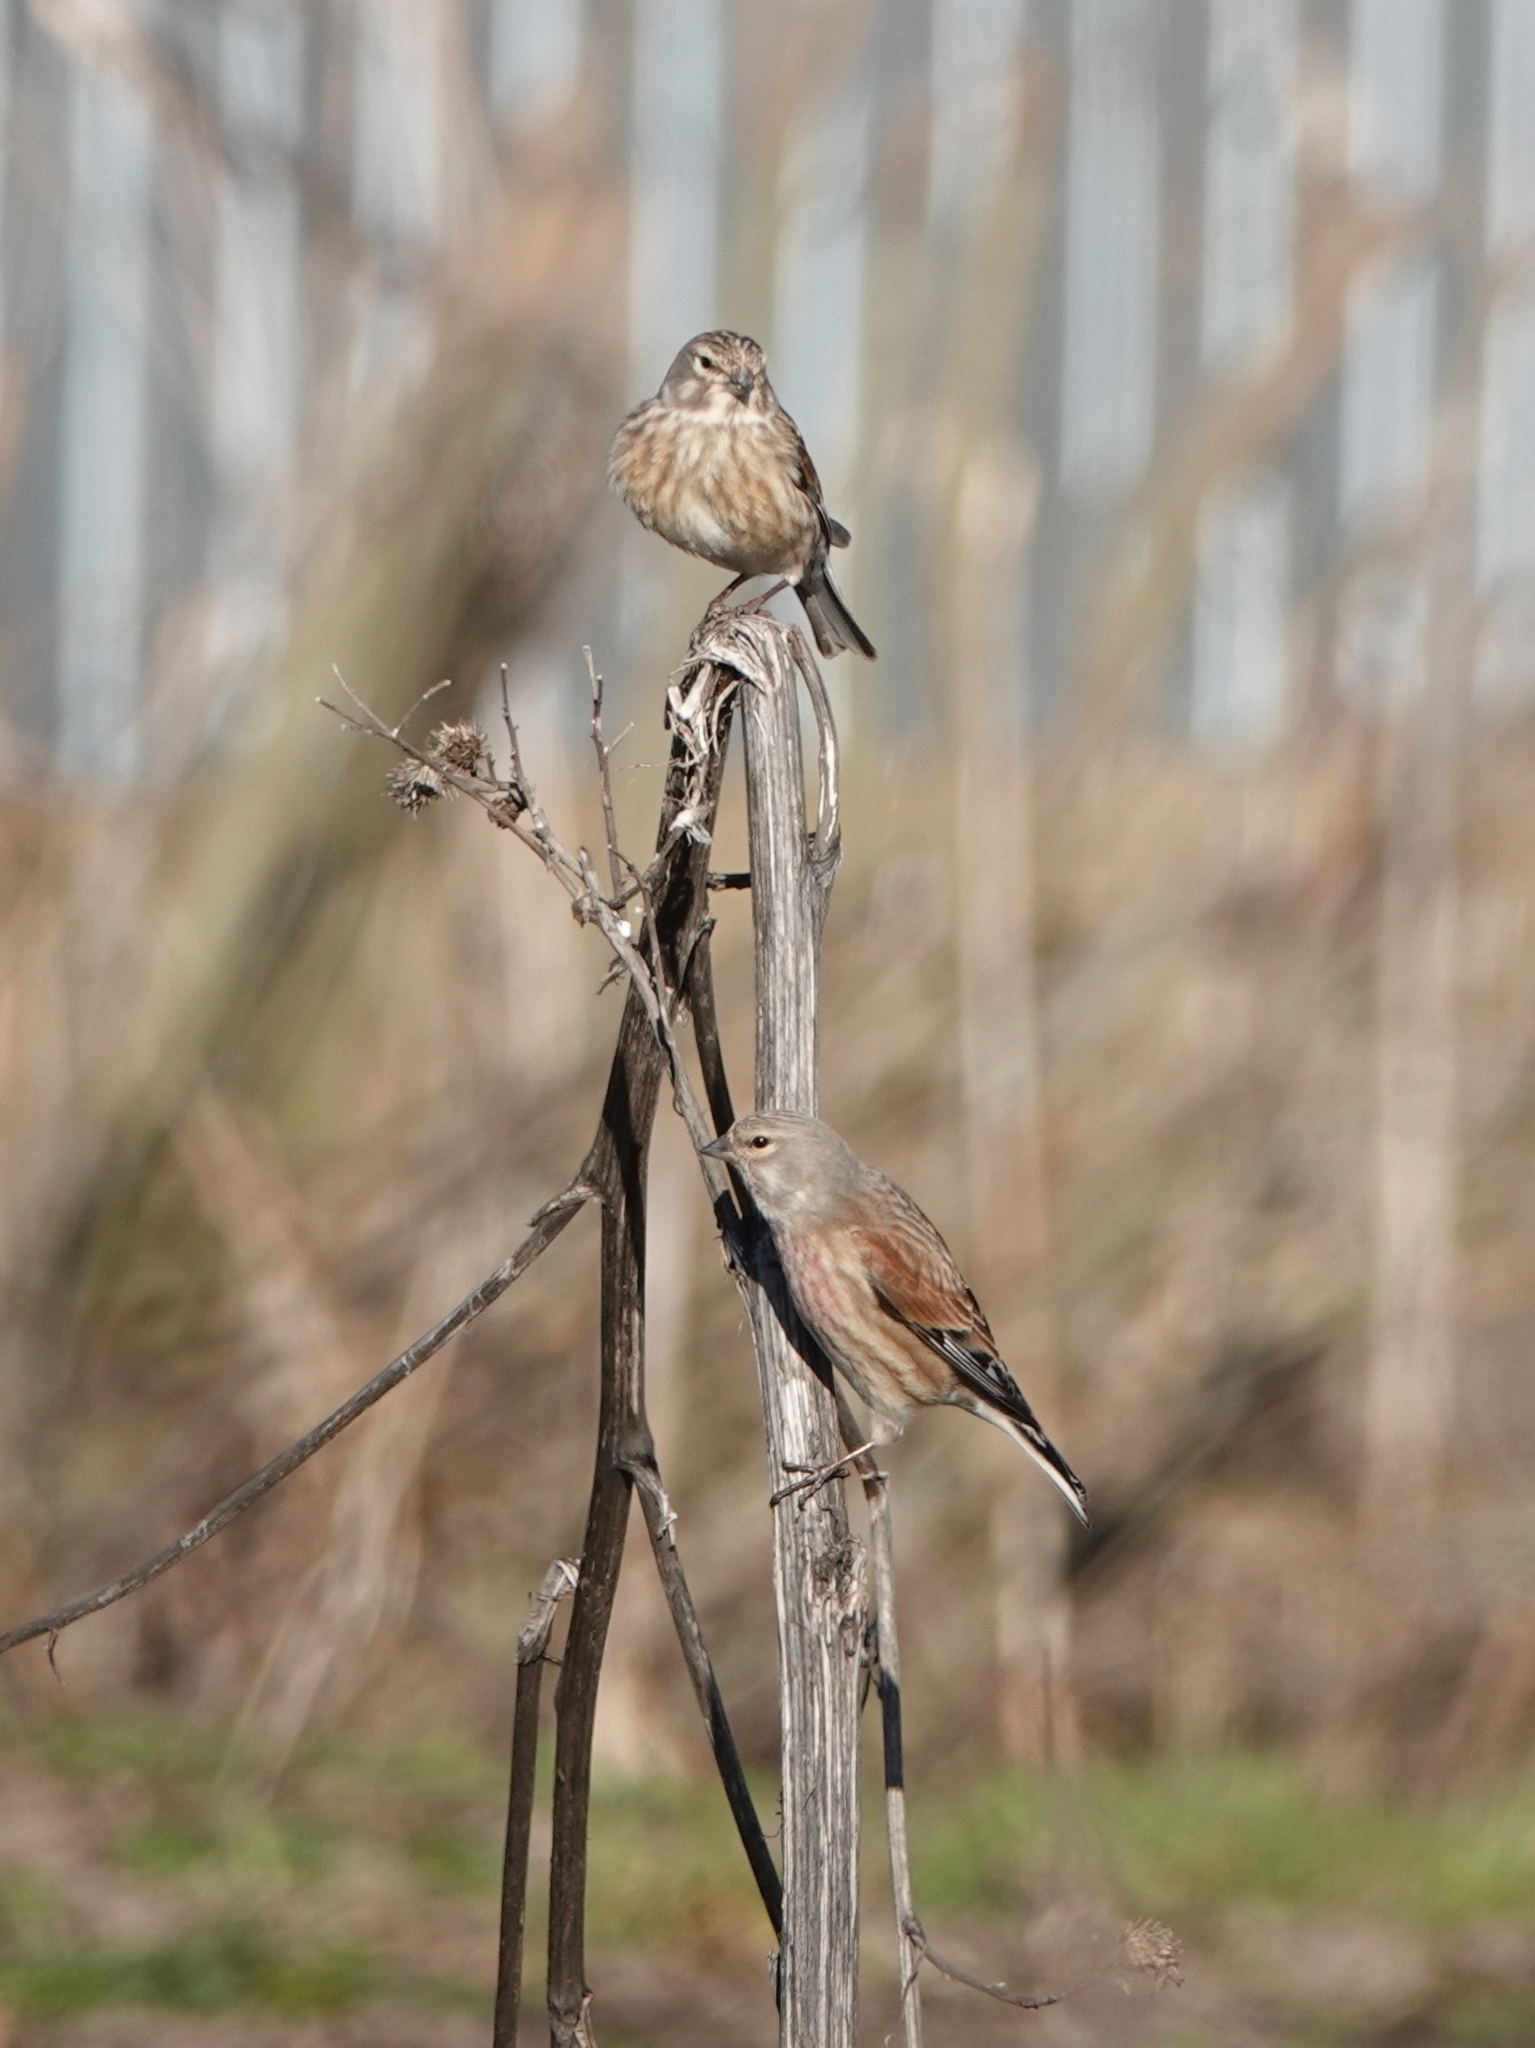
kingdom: Animalia
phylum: Chordata
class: Aves
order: Passeriformes
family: Fringillidae
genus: Linaria
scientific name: Linaria cannabina
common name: Common linnet
